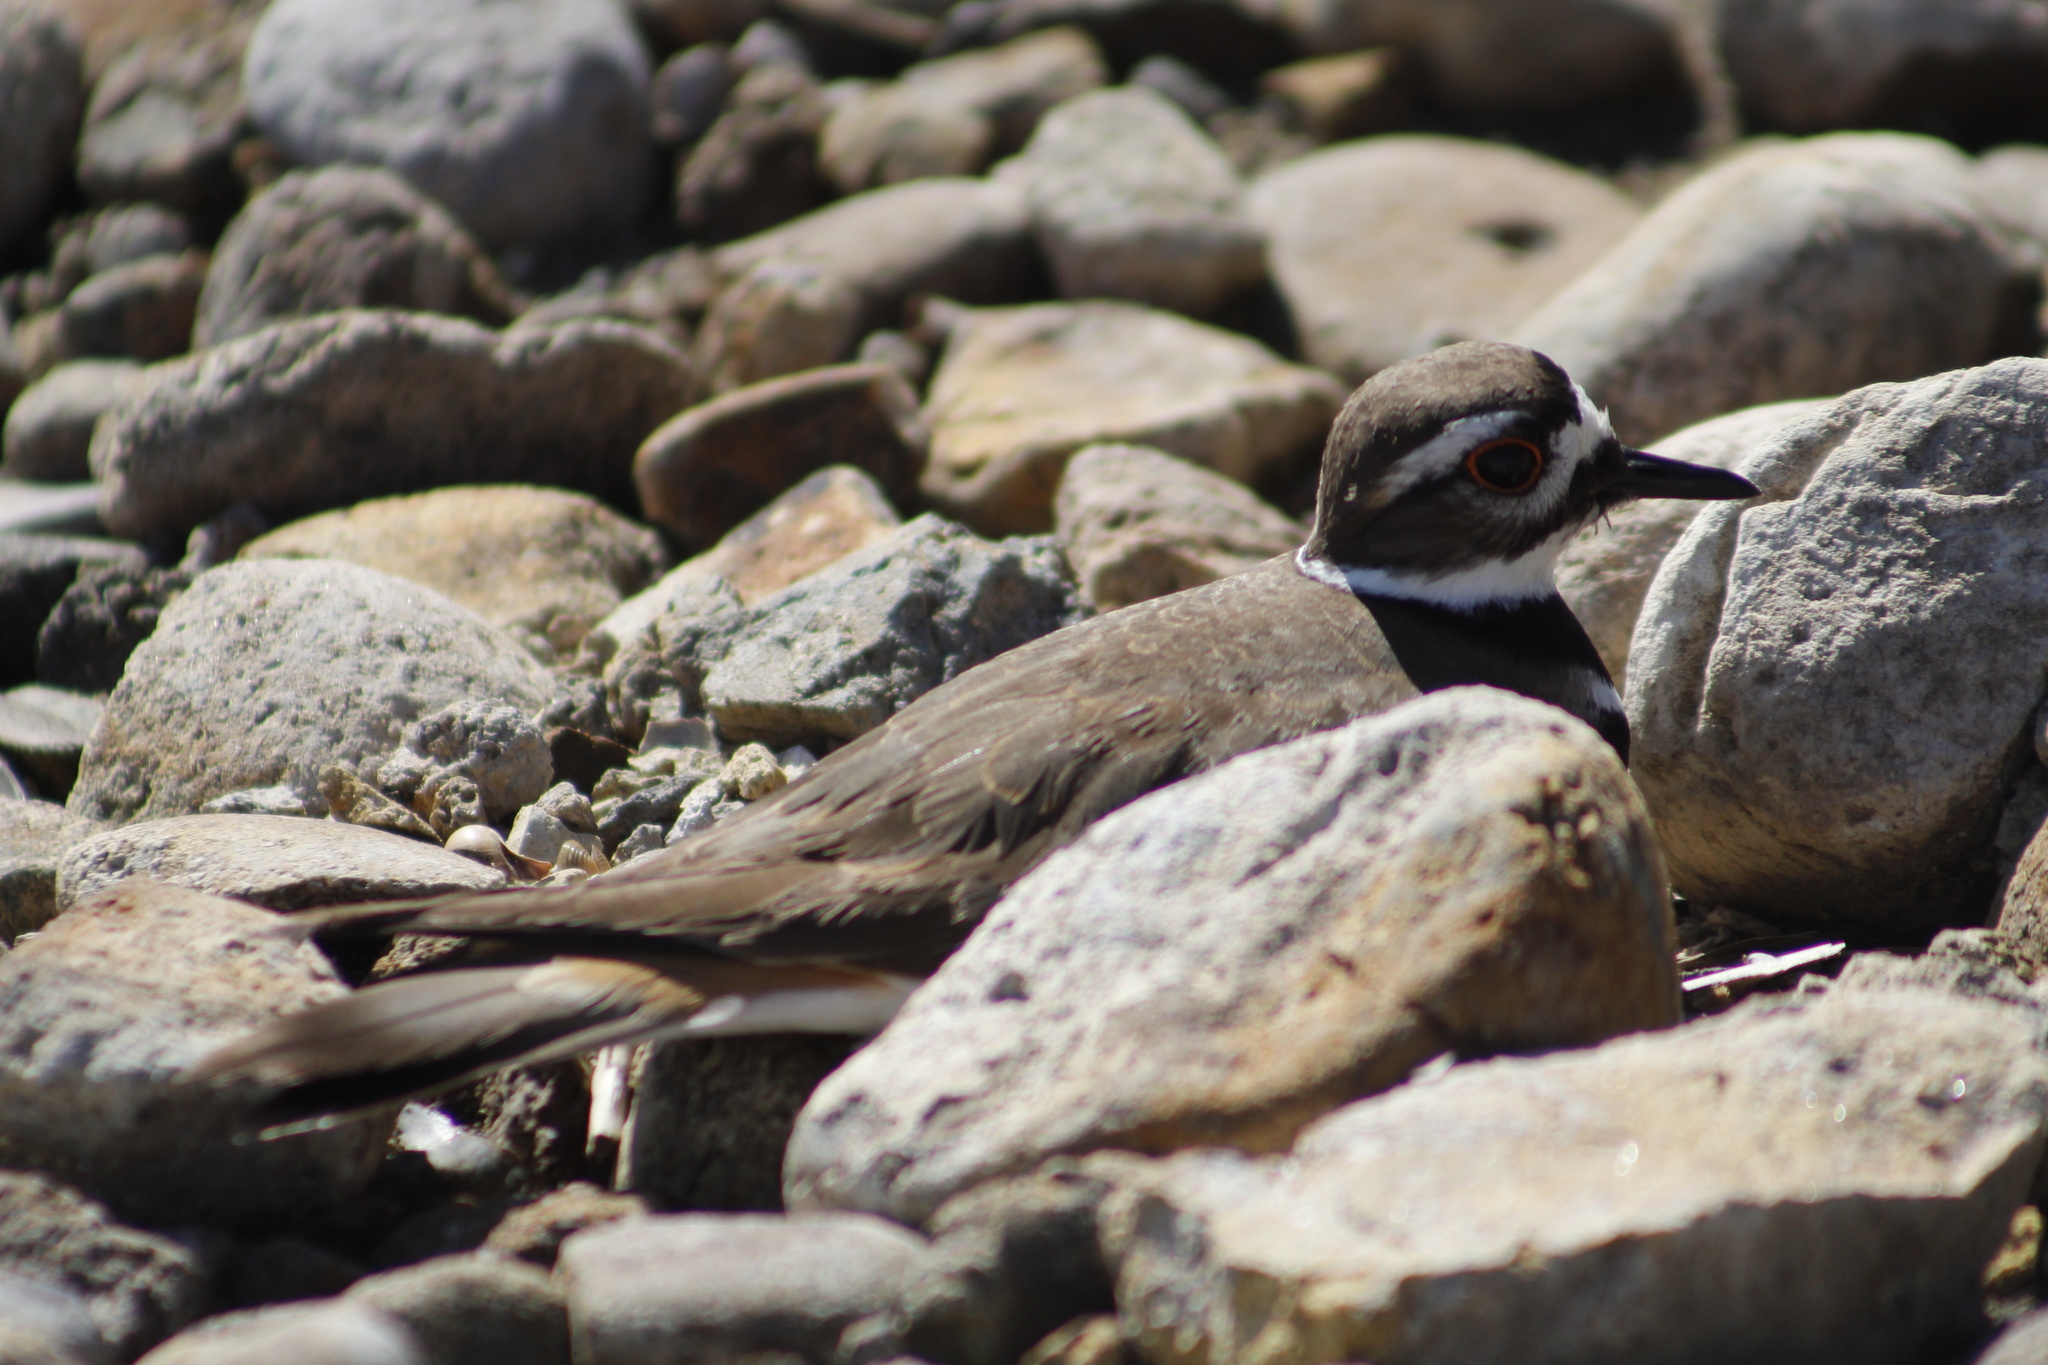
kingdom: Animalia
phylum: Chordata
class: Aves
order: Charadriiformes
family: Charadriidae
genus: Charadrius
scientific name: Charadrius vociferus
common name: Killdeer
